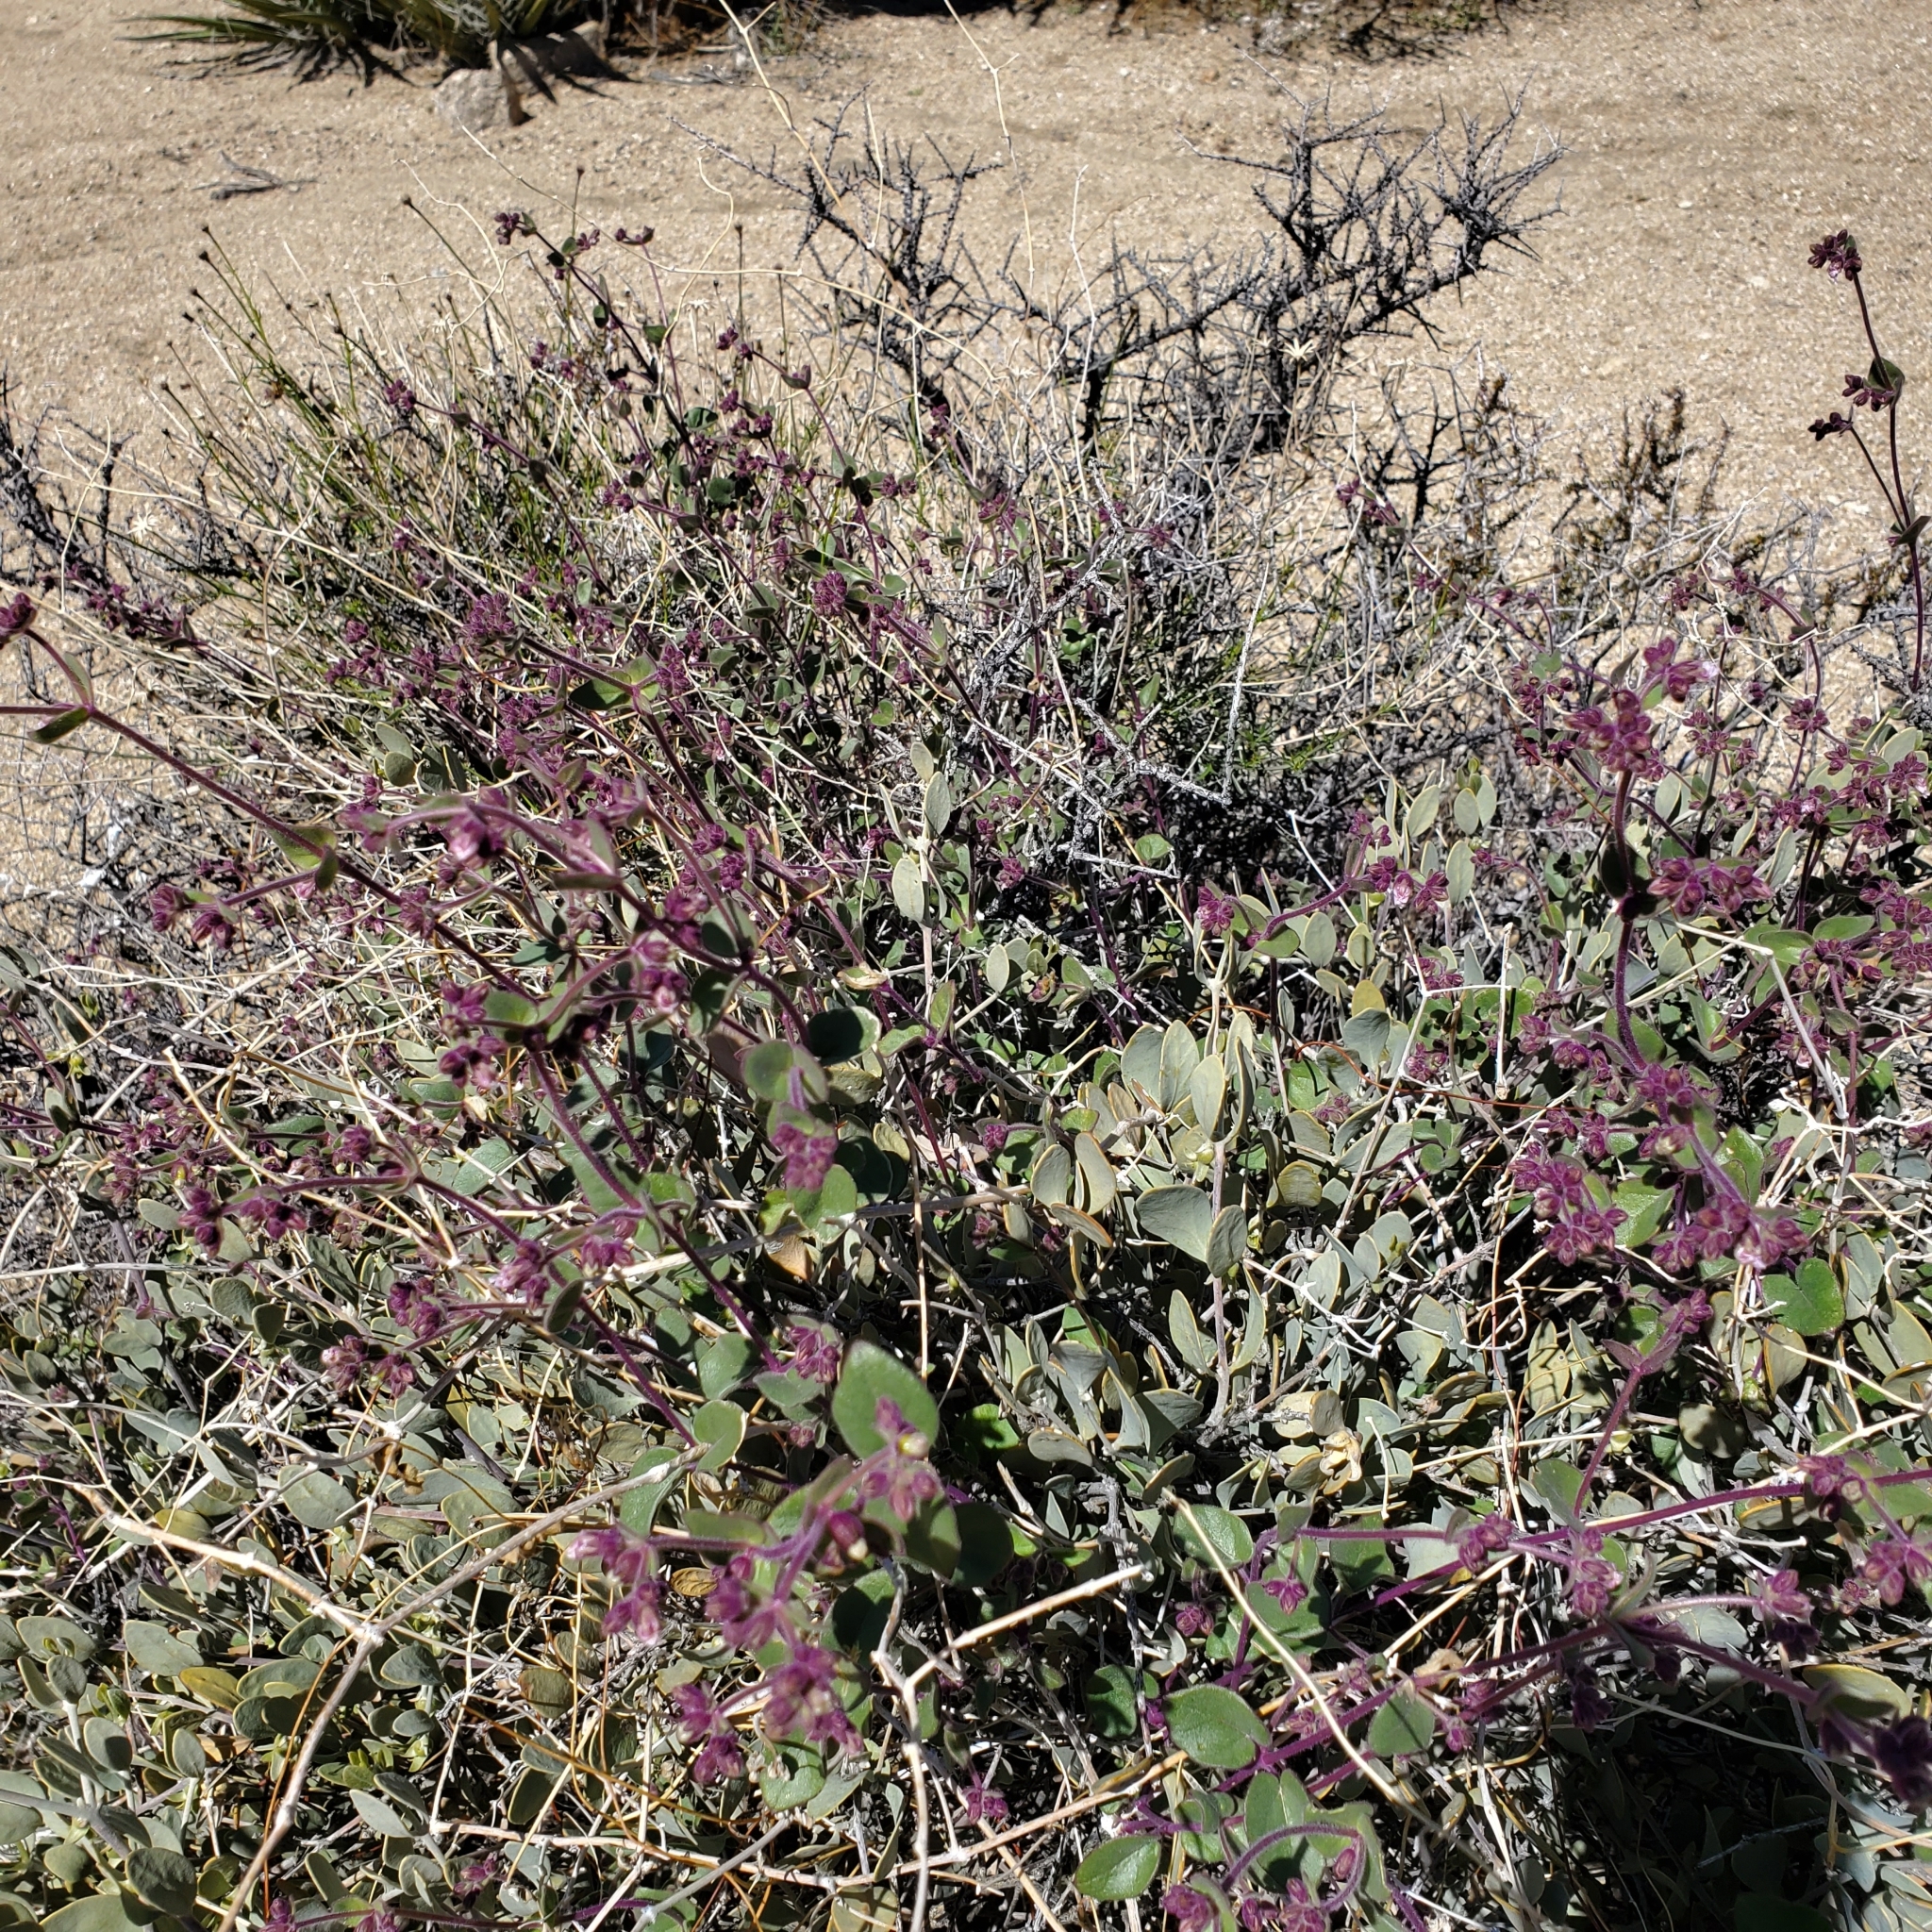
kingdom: Plantae
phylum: Tracheophyta
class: Magnoliopsida
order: Caryophyllales
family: Nyctaginaceae
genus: Mirabilis
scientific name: Mirabilis laevis
